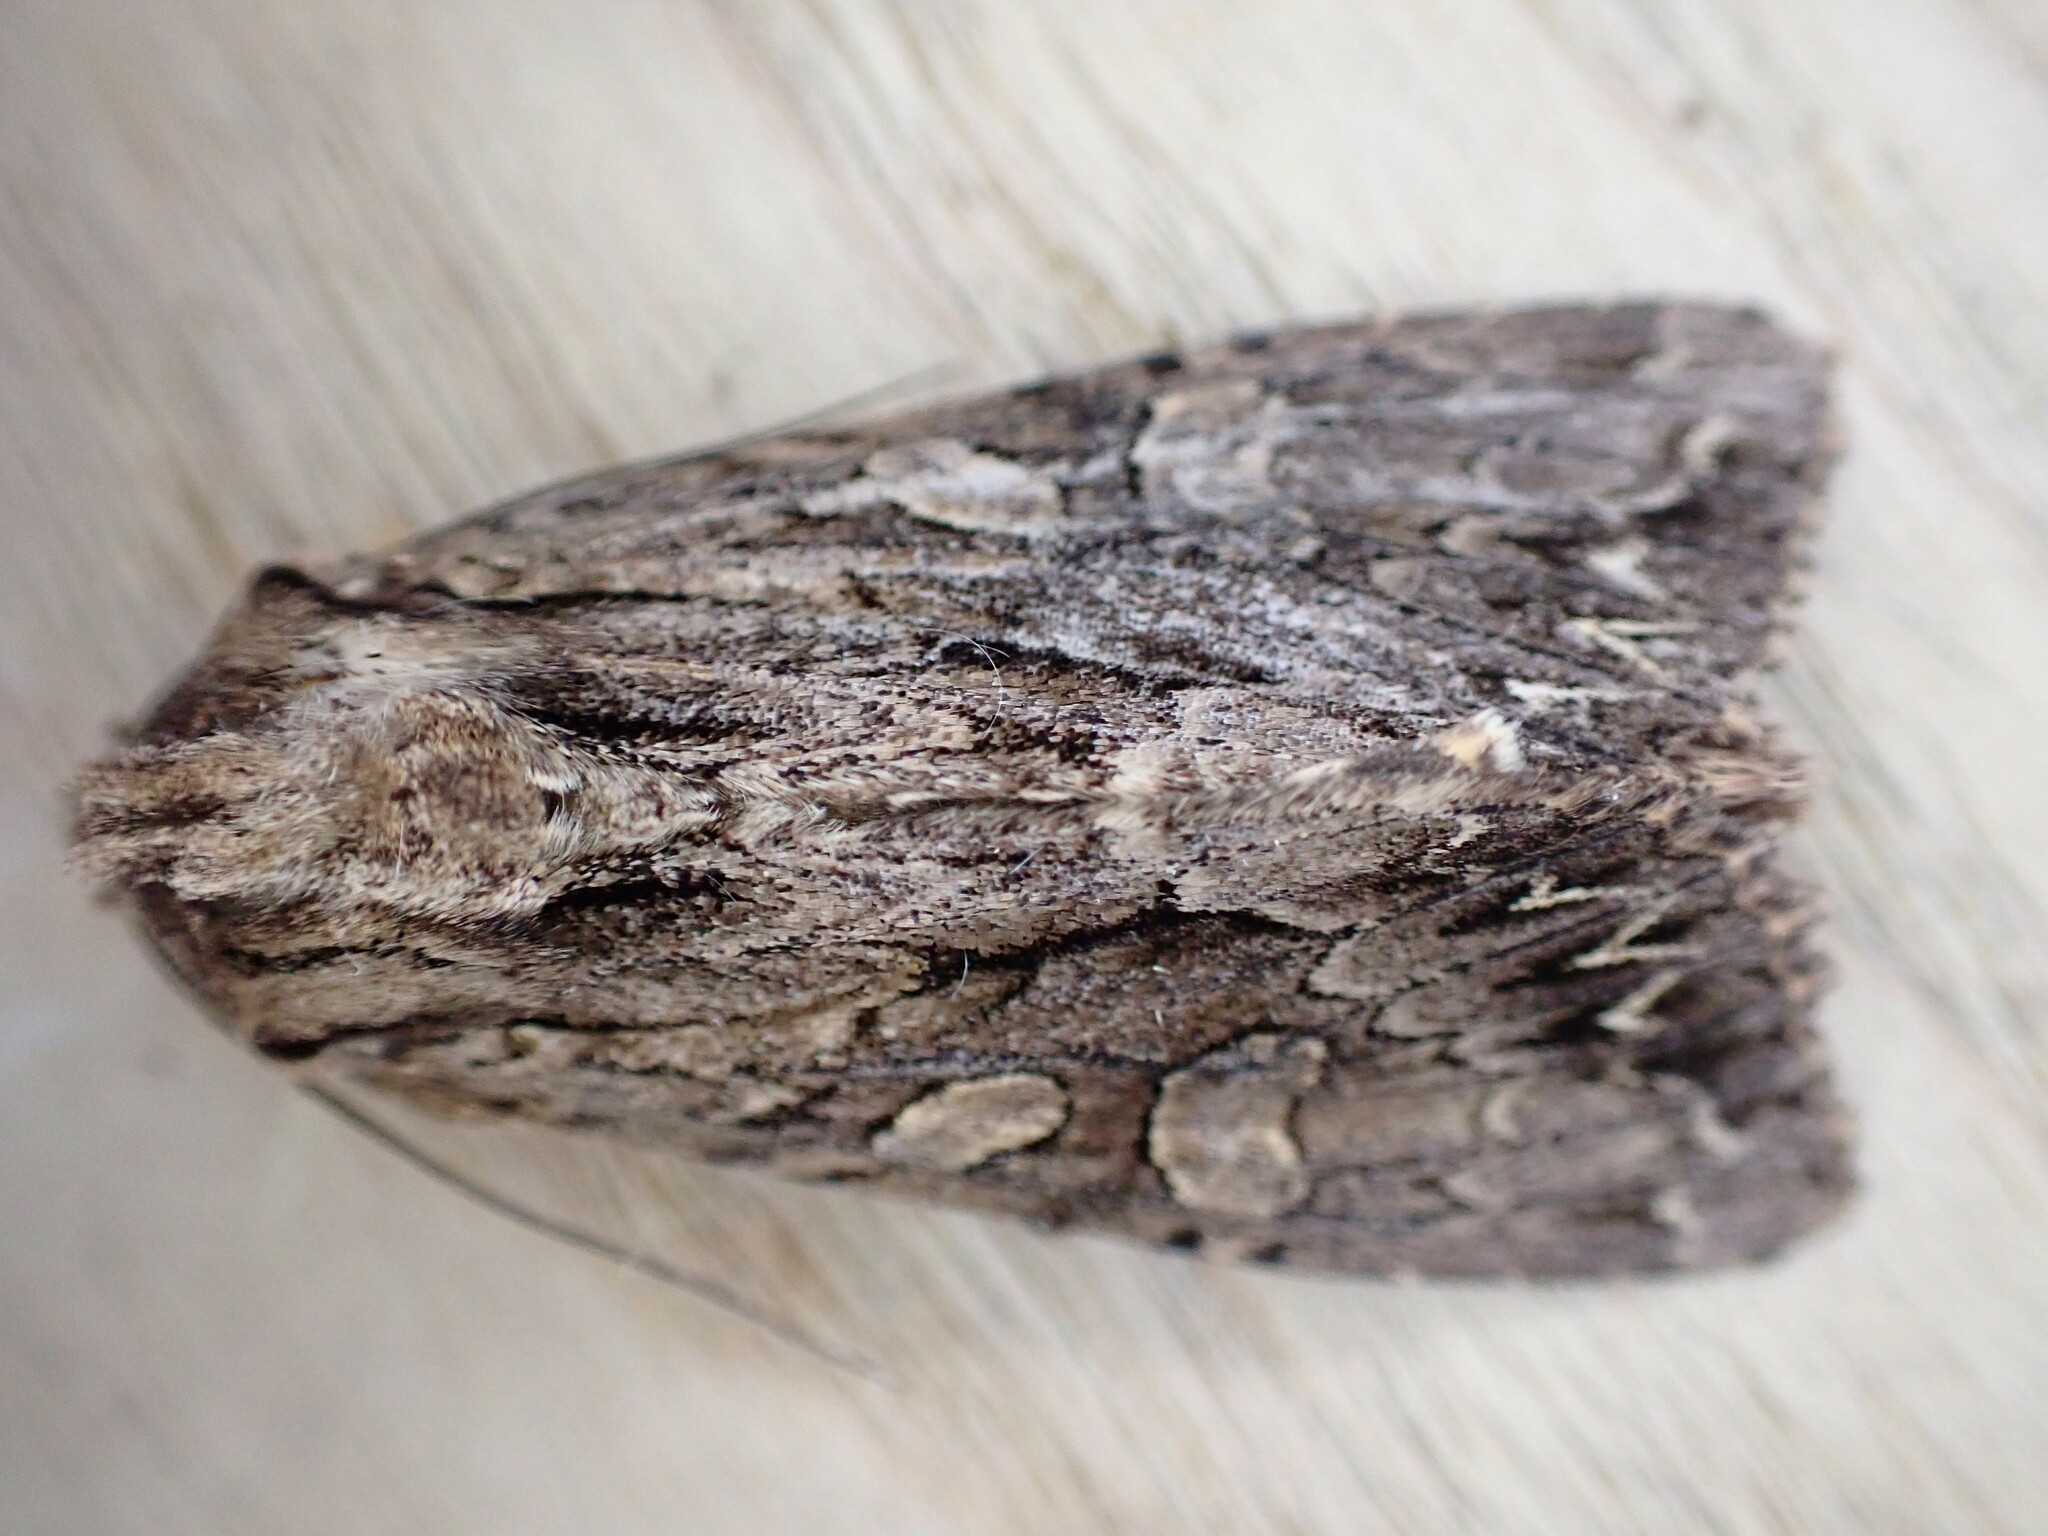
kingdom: Animalia
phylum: Arthropoda
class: Insecta
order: Lepidoptera
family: Noctuidae
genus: Apamea
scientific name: Apamea monoglypha
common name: Dark arches
